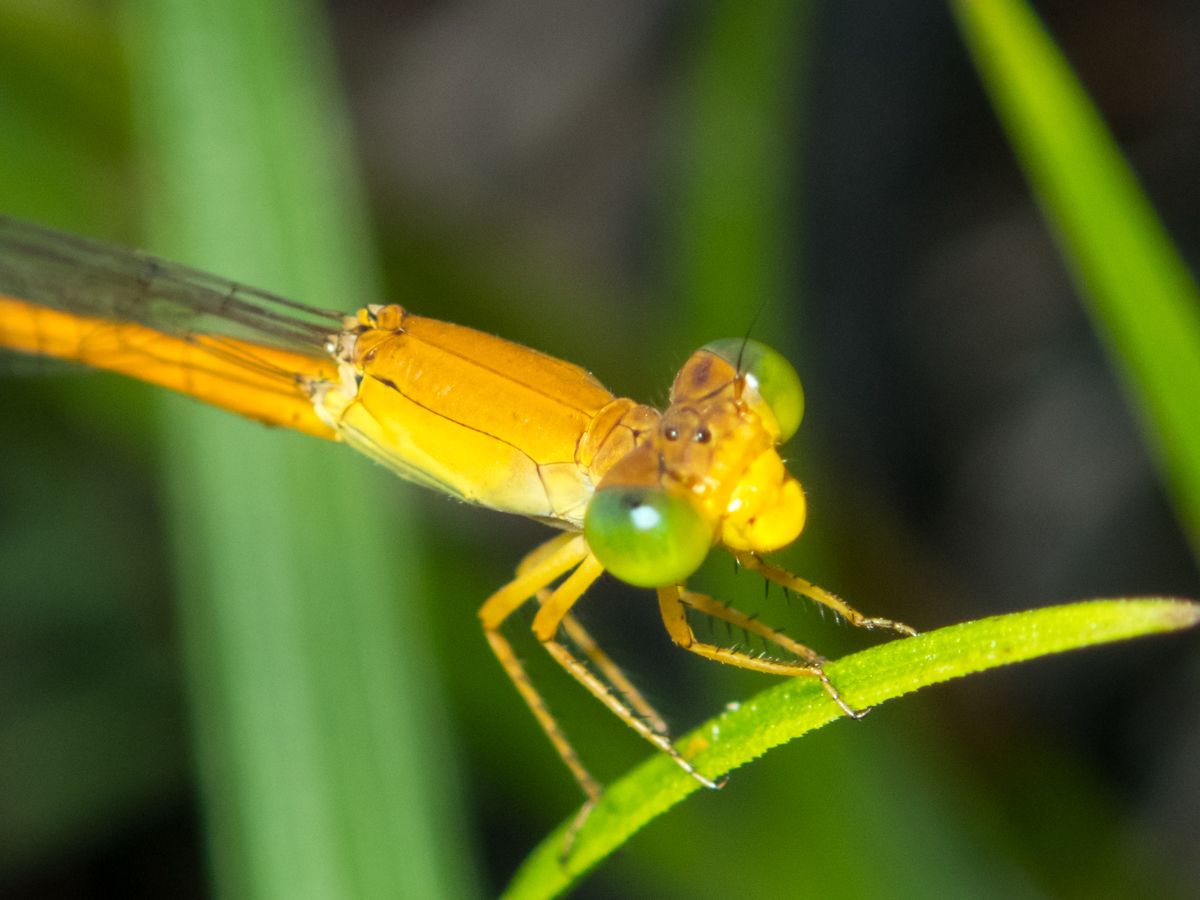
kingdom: Animalia
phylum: Arthropoda
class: Insecta
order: Odonata
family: Coenagrionidae
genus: Ceriagrion
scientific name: Ceriagrion calamineum
